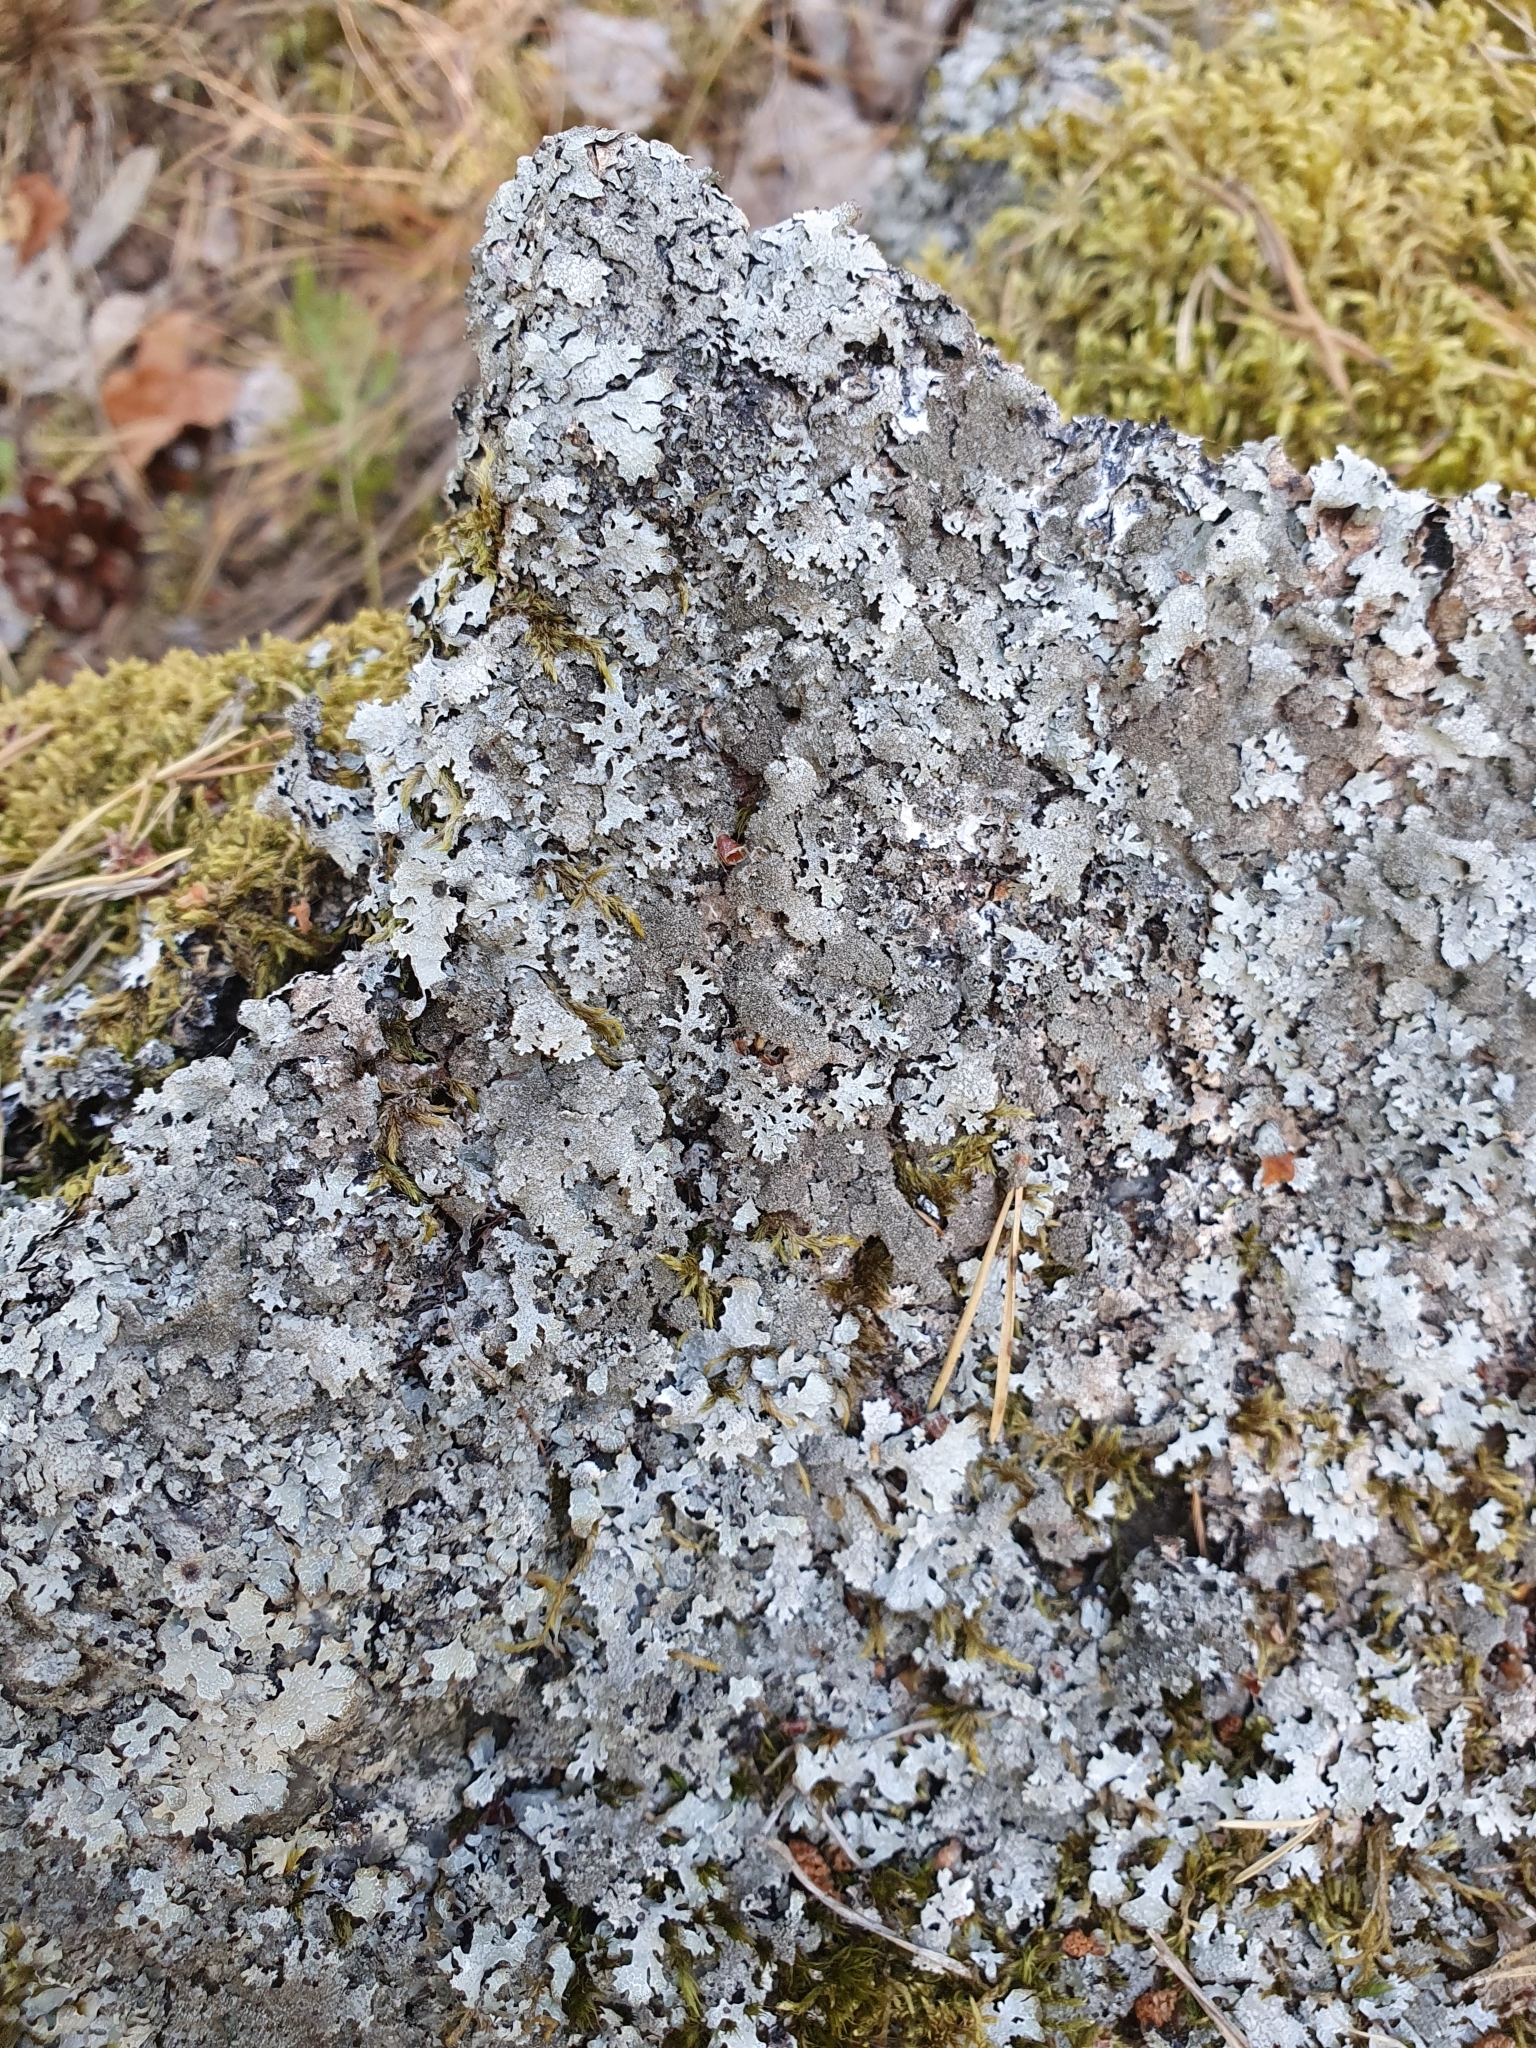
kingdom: Fungi
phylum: Ascomycota
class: Lecanoromycetes
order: Lecanorales
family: Parmeliaceae
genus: Parmelia
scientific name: Parmelia saxatilis
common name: Salted shield lichen
